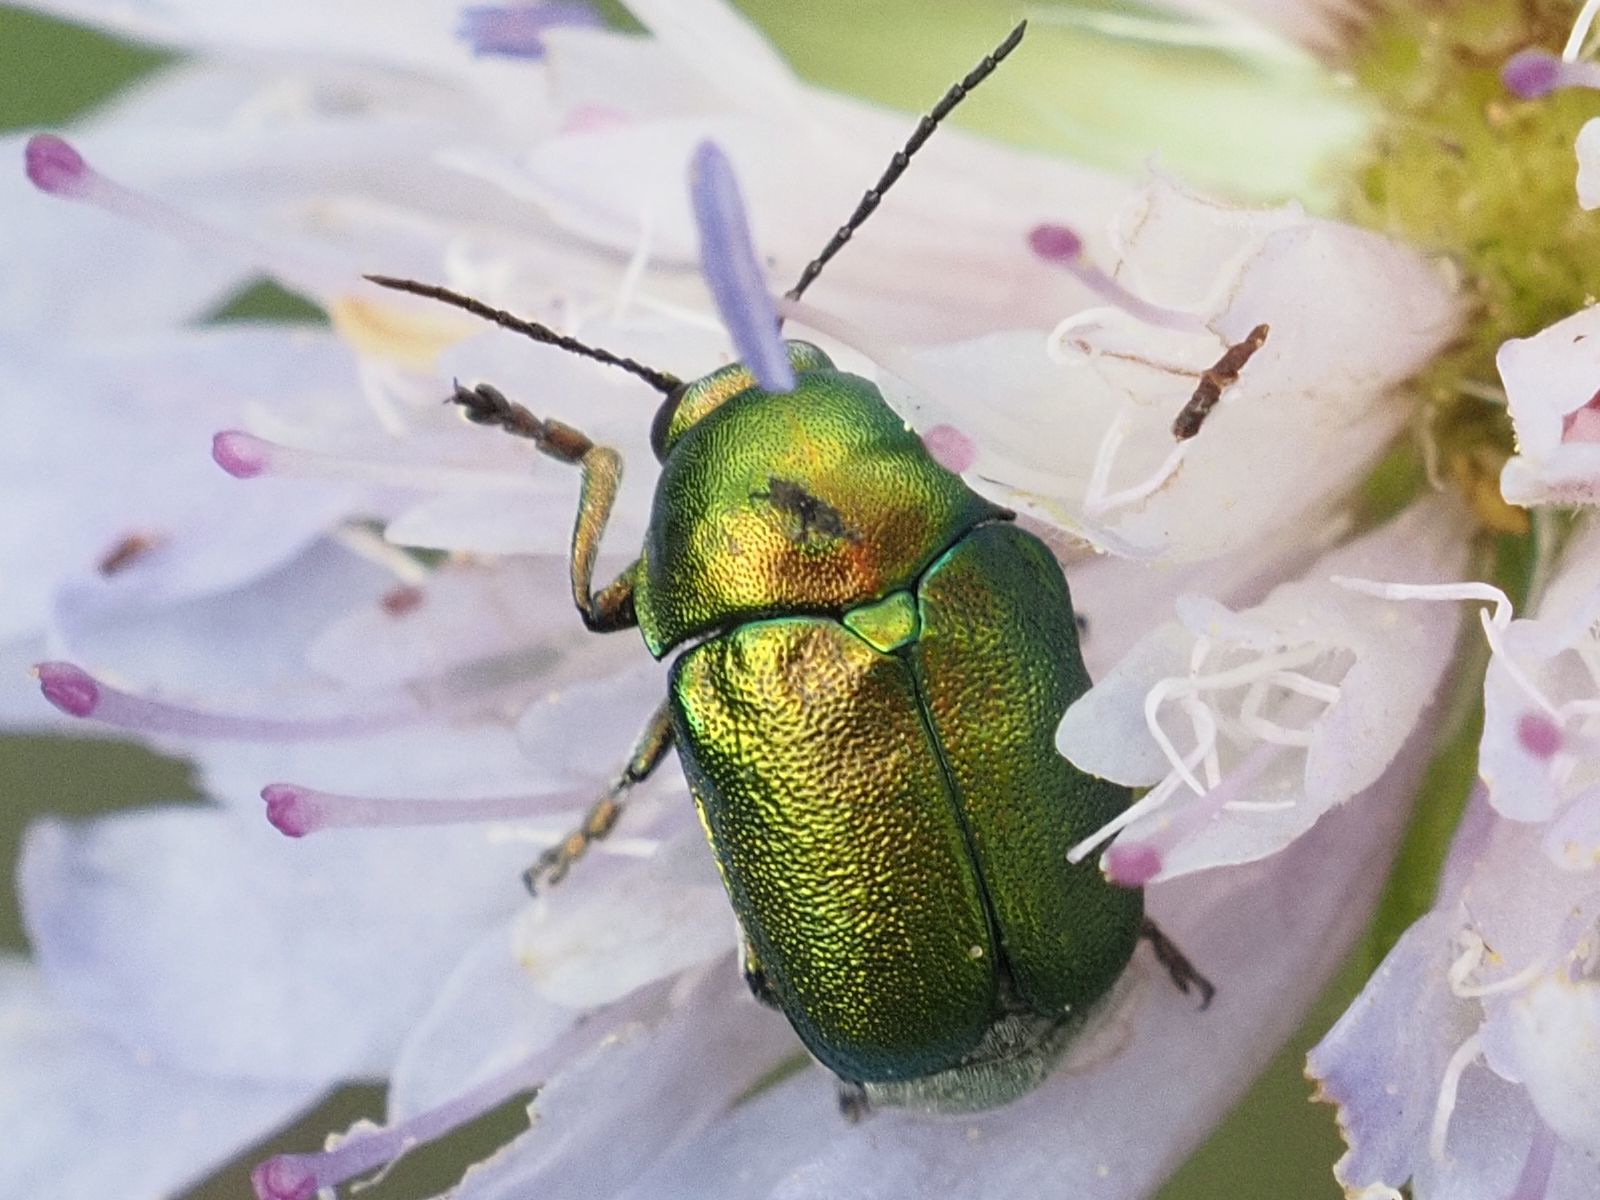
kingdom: Animalia
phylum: Arthropoda
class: Insecta
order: Coleoptera
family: Chrysomelidae
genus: Cryptocephalus
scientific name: Cryptocephalus
